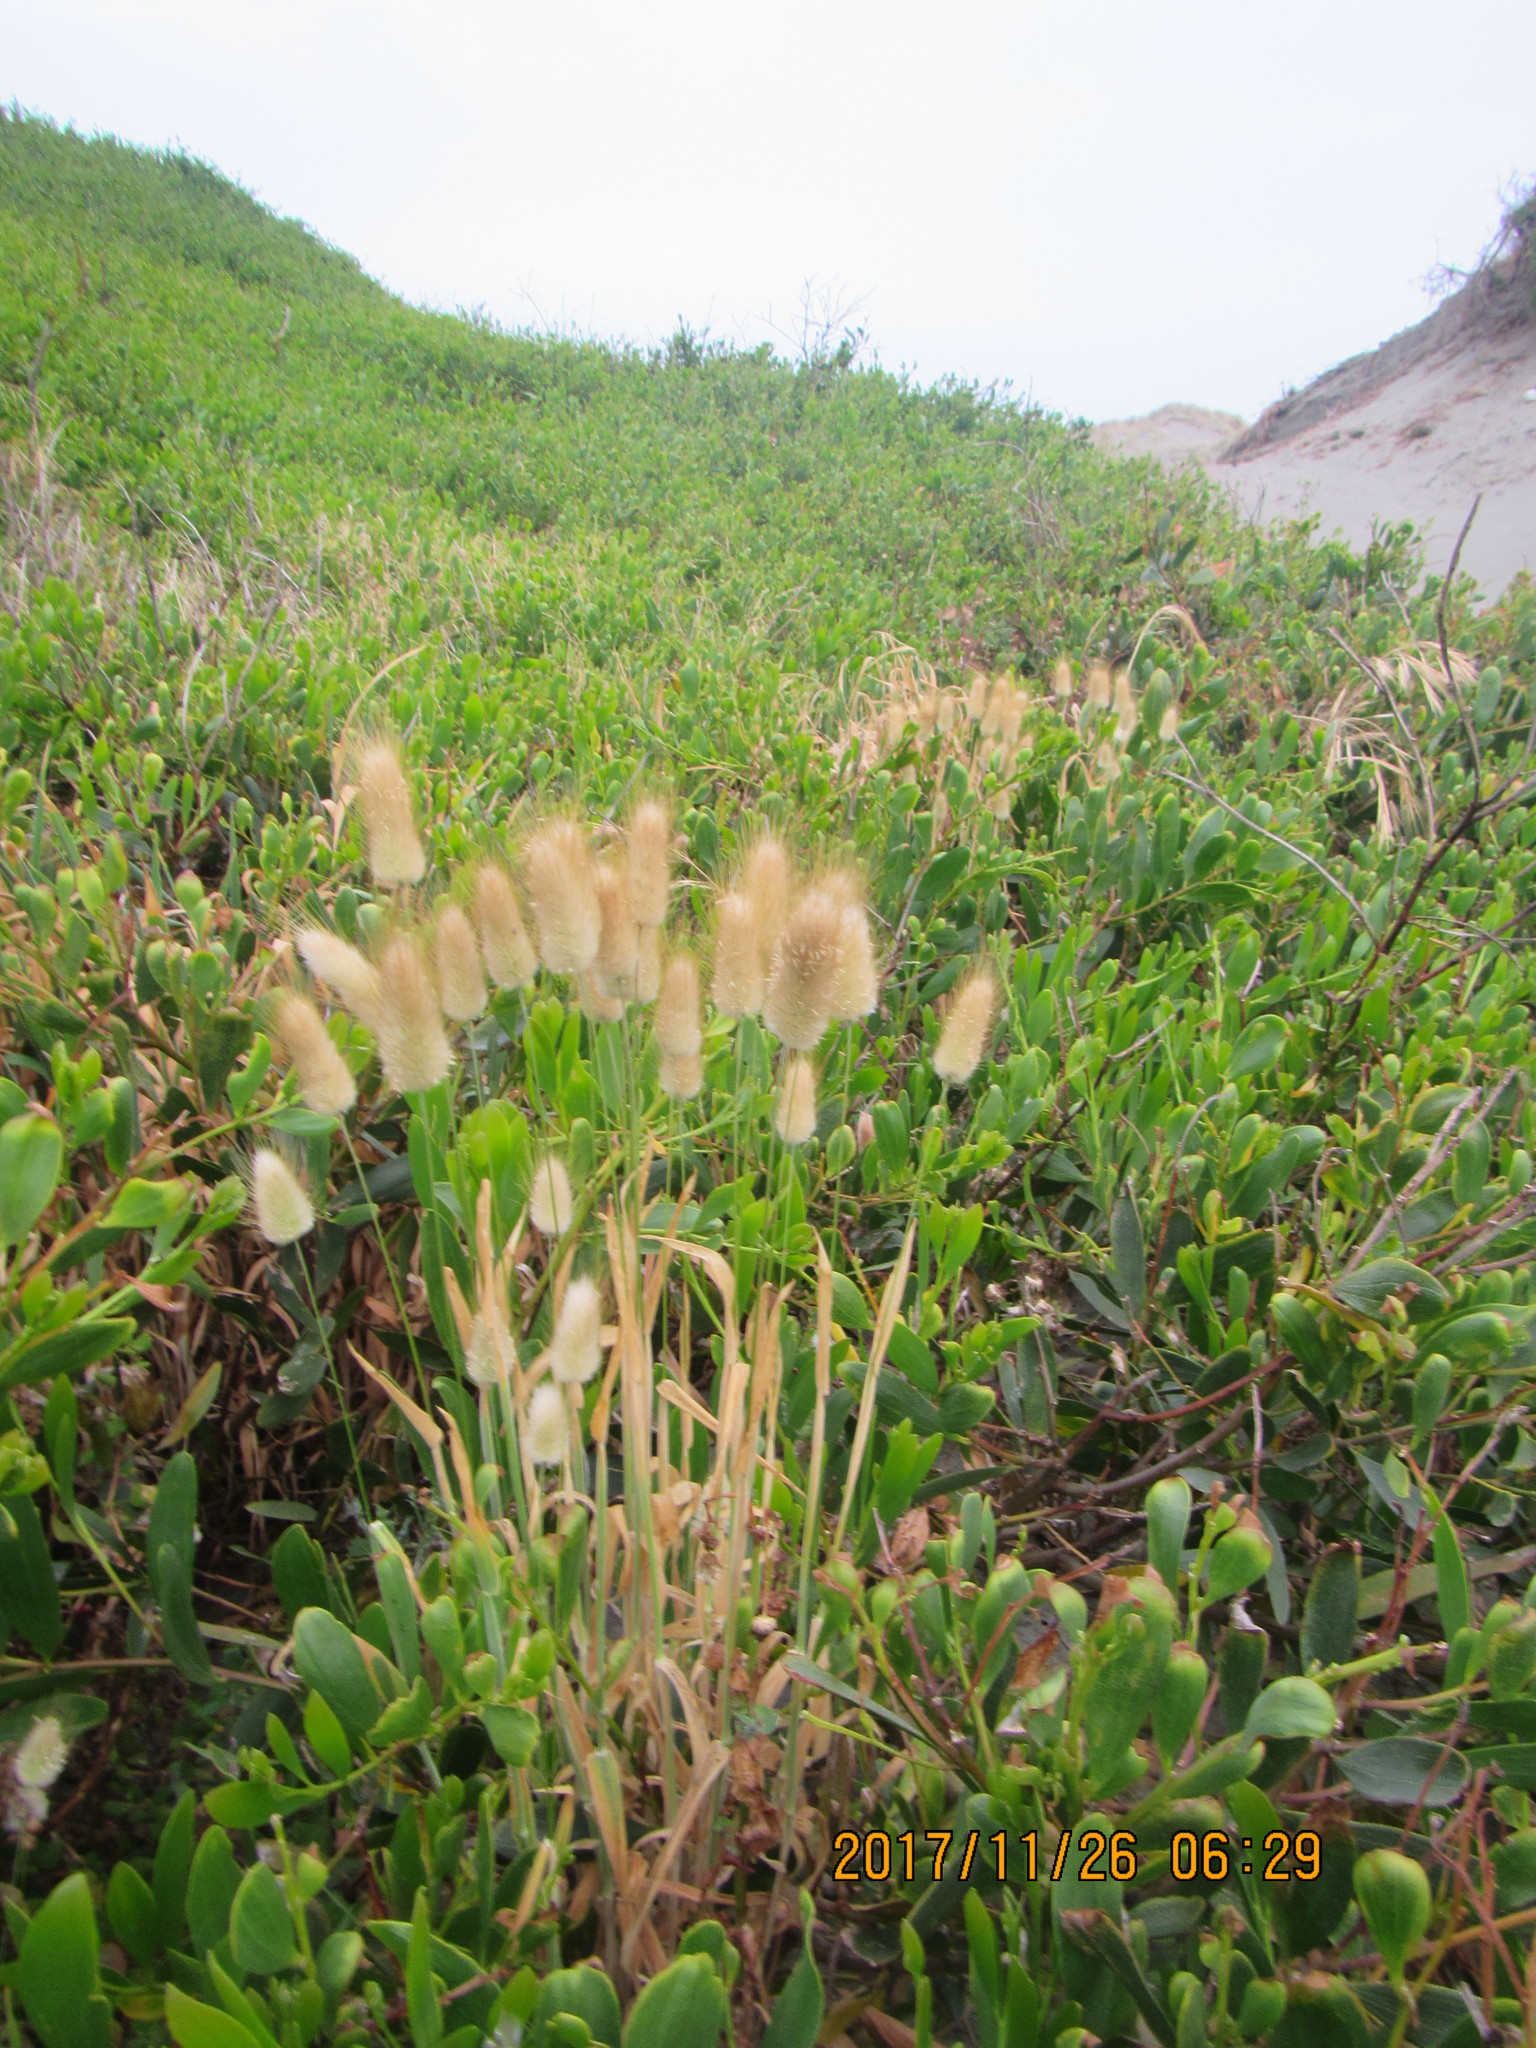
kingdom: Plantae
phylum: Tracheophyta
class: Liliopsida
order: Poales
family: Poaceae
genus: Lagurus
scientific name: Lagurus ovatus
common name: Hare's-tail
